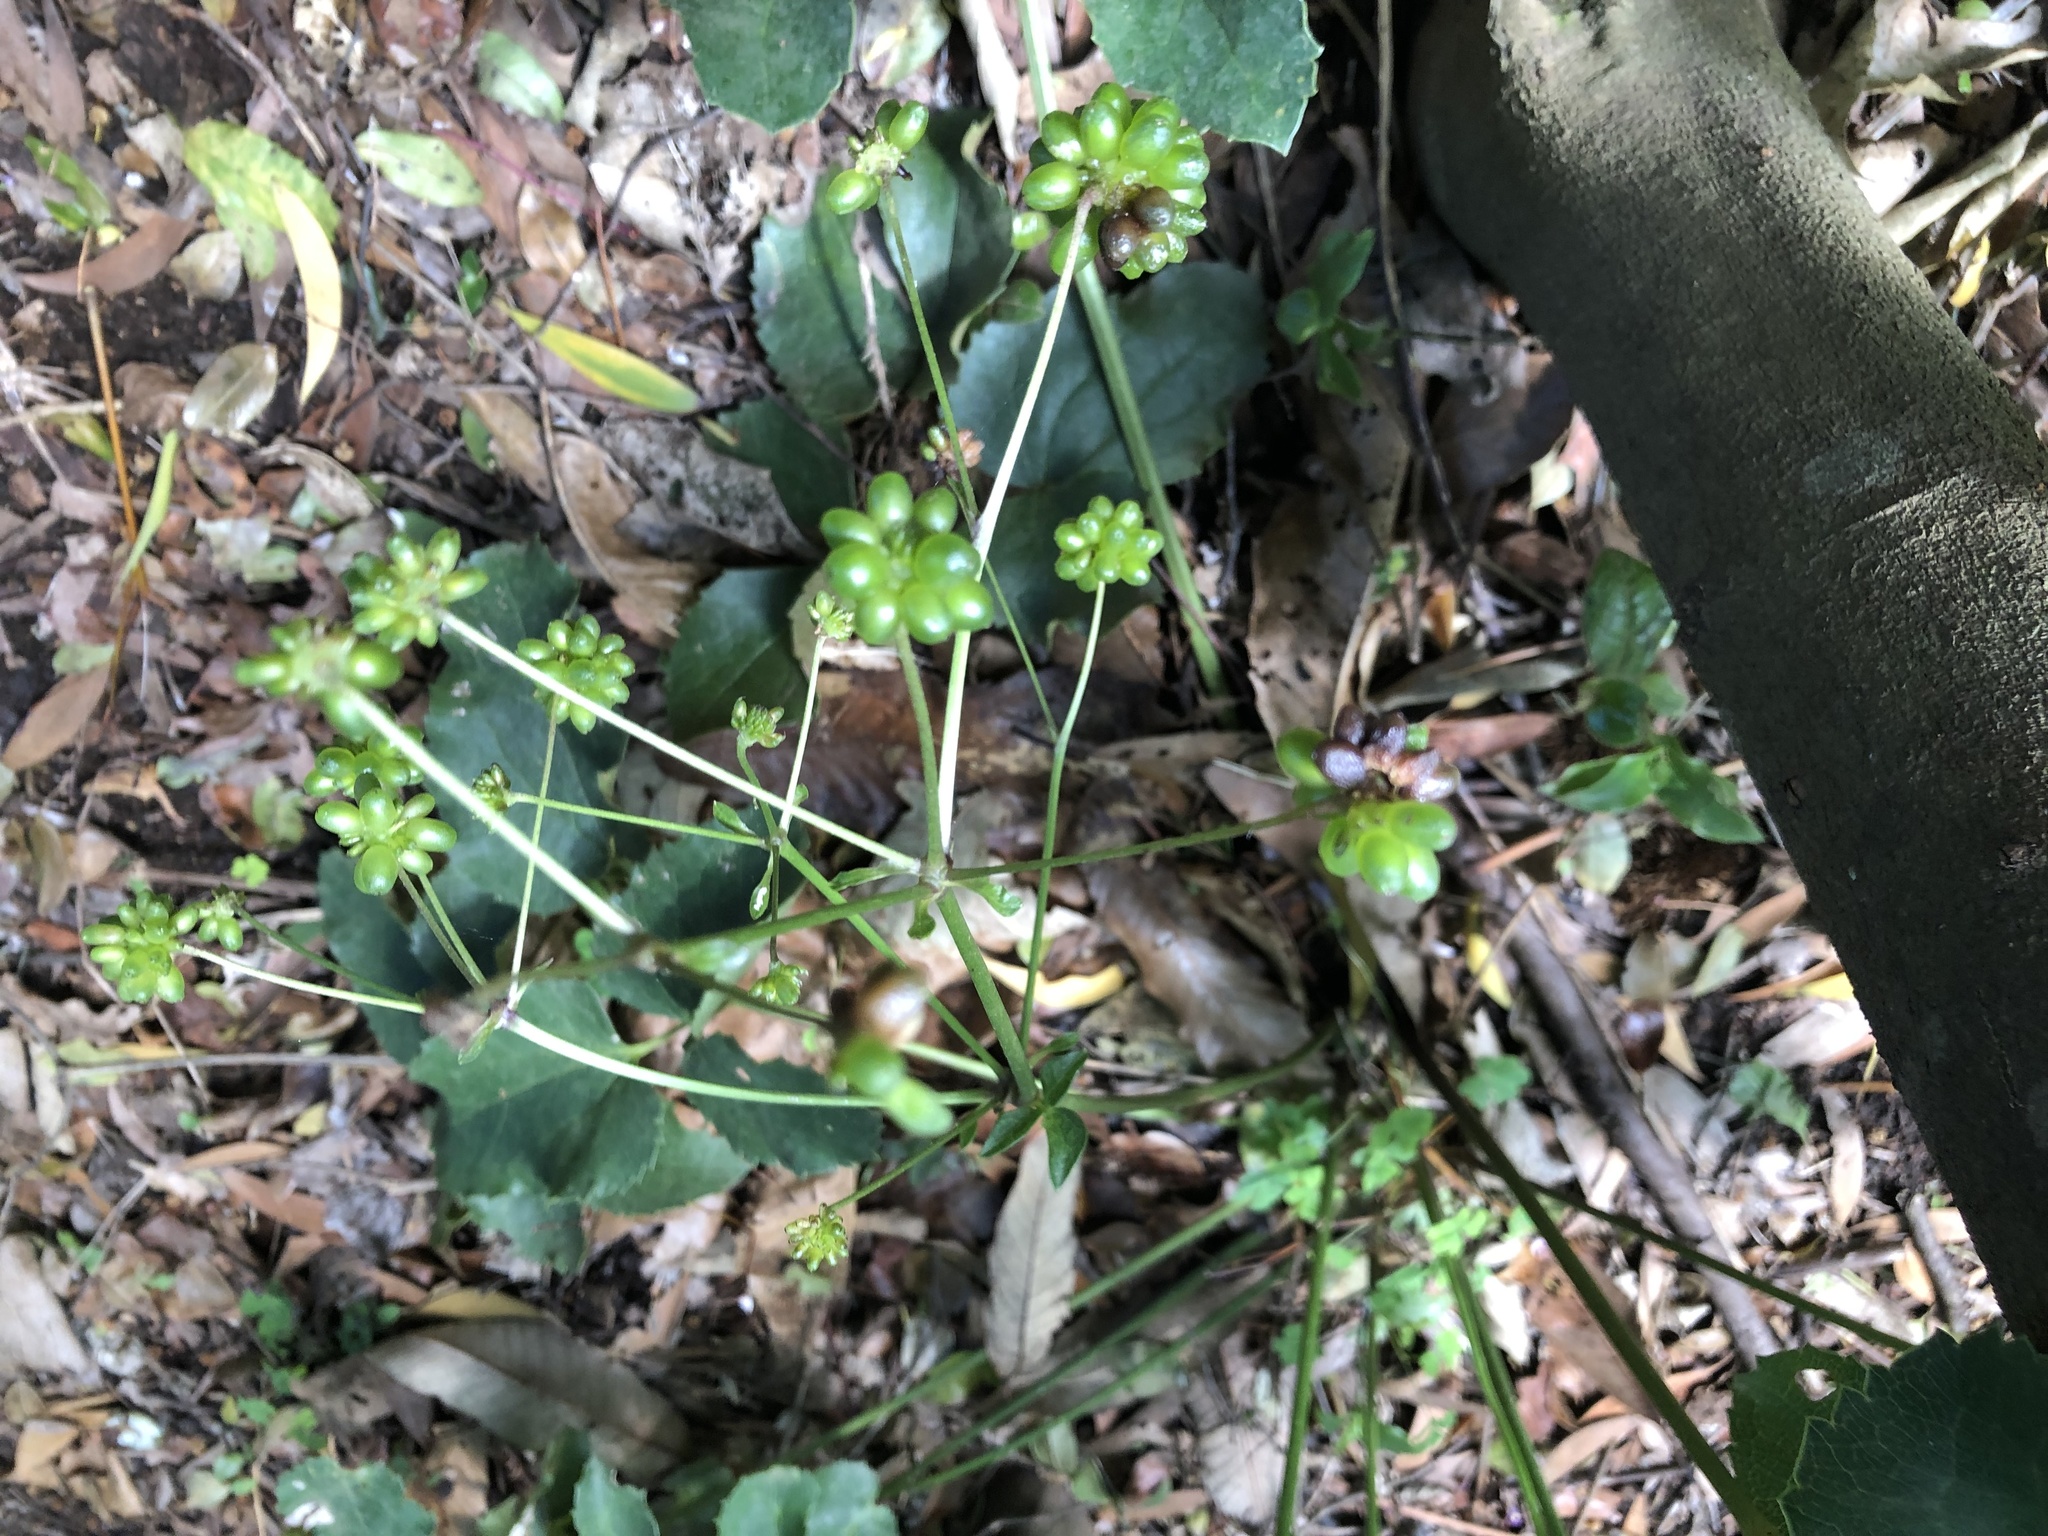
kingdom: Plantae
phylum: Tracheophyta
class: Magnoliopsida
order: Ranunculales
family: Ranunculaceae
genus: Knowltonia
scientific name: Knowltonia vesicatoria
